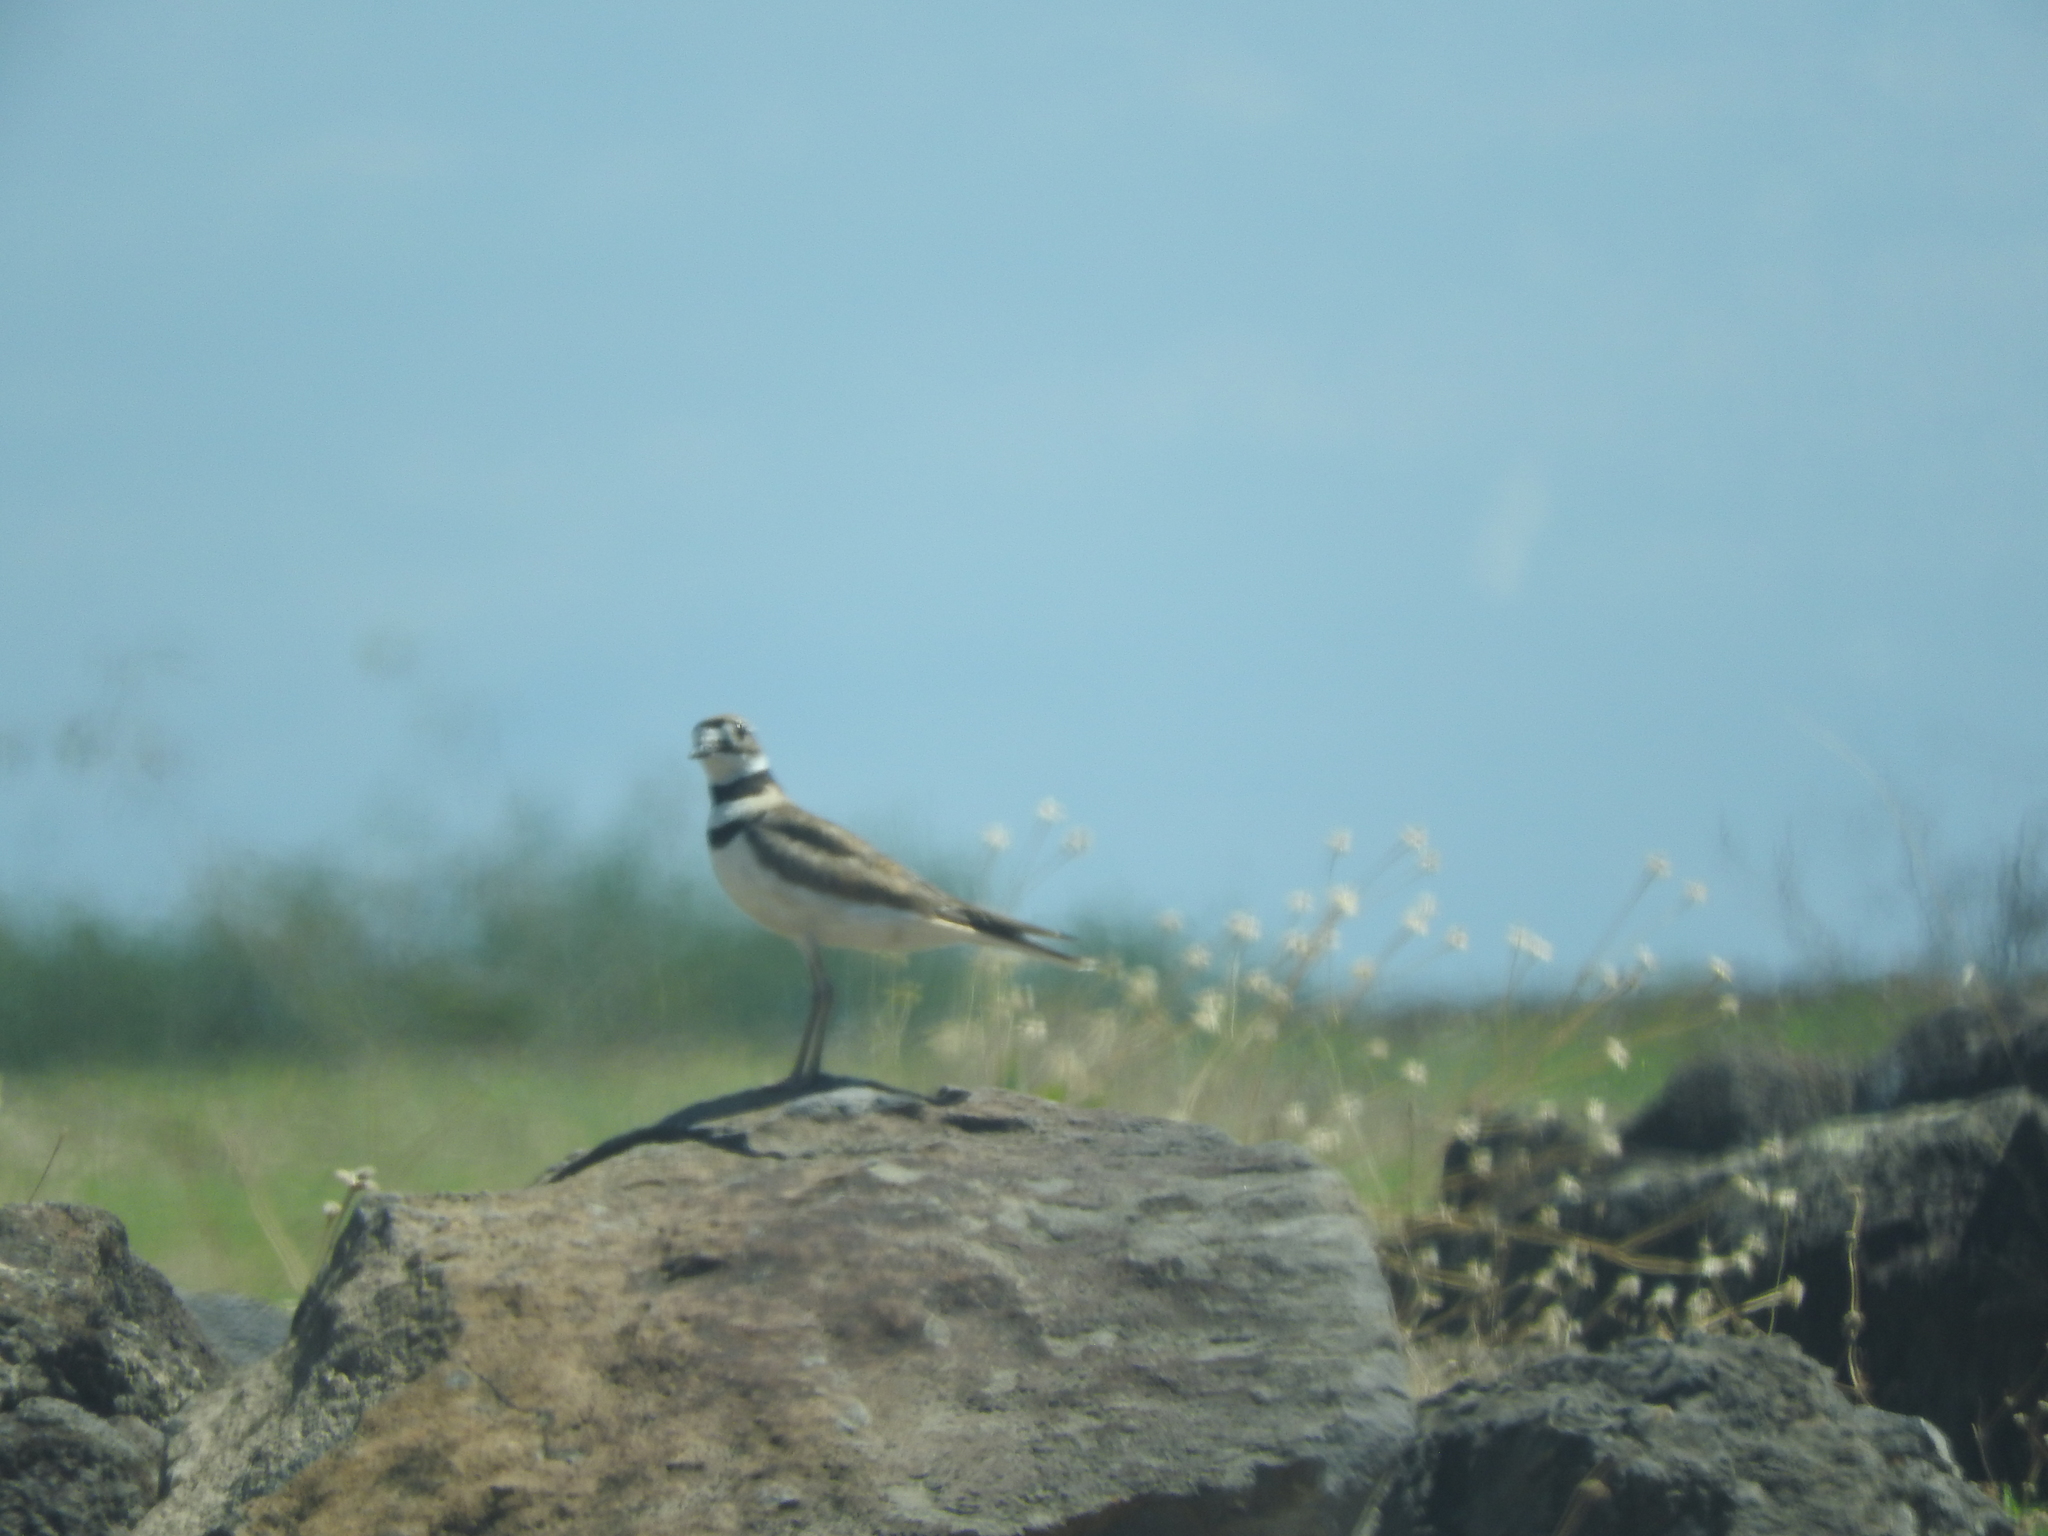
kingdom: Animalia
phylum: Chordata
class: Aves
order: Charadriiformes
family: Charadriidae
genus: Charadrius
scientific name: Charadrius vociferus
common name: Killdeer
